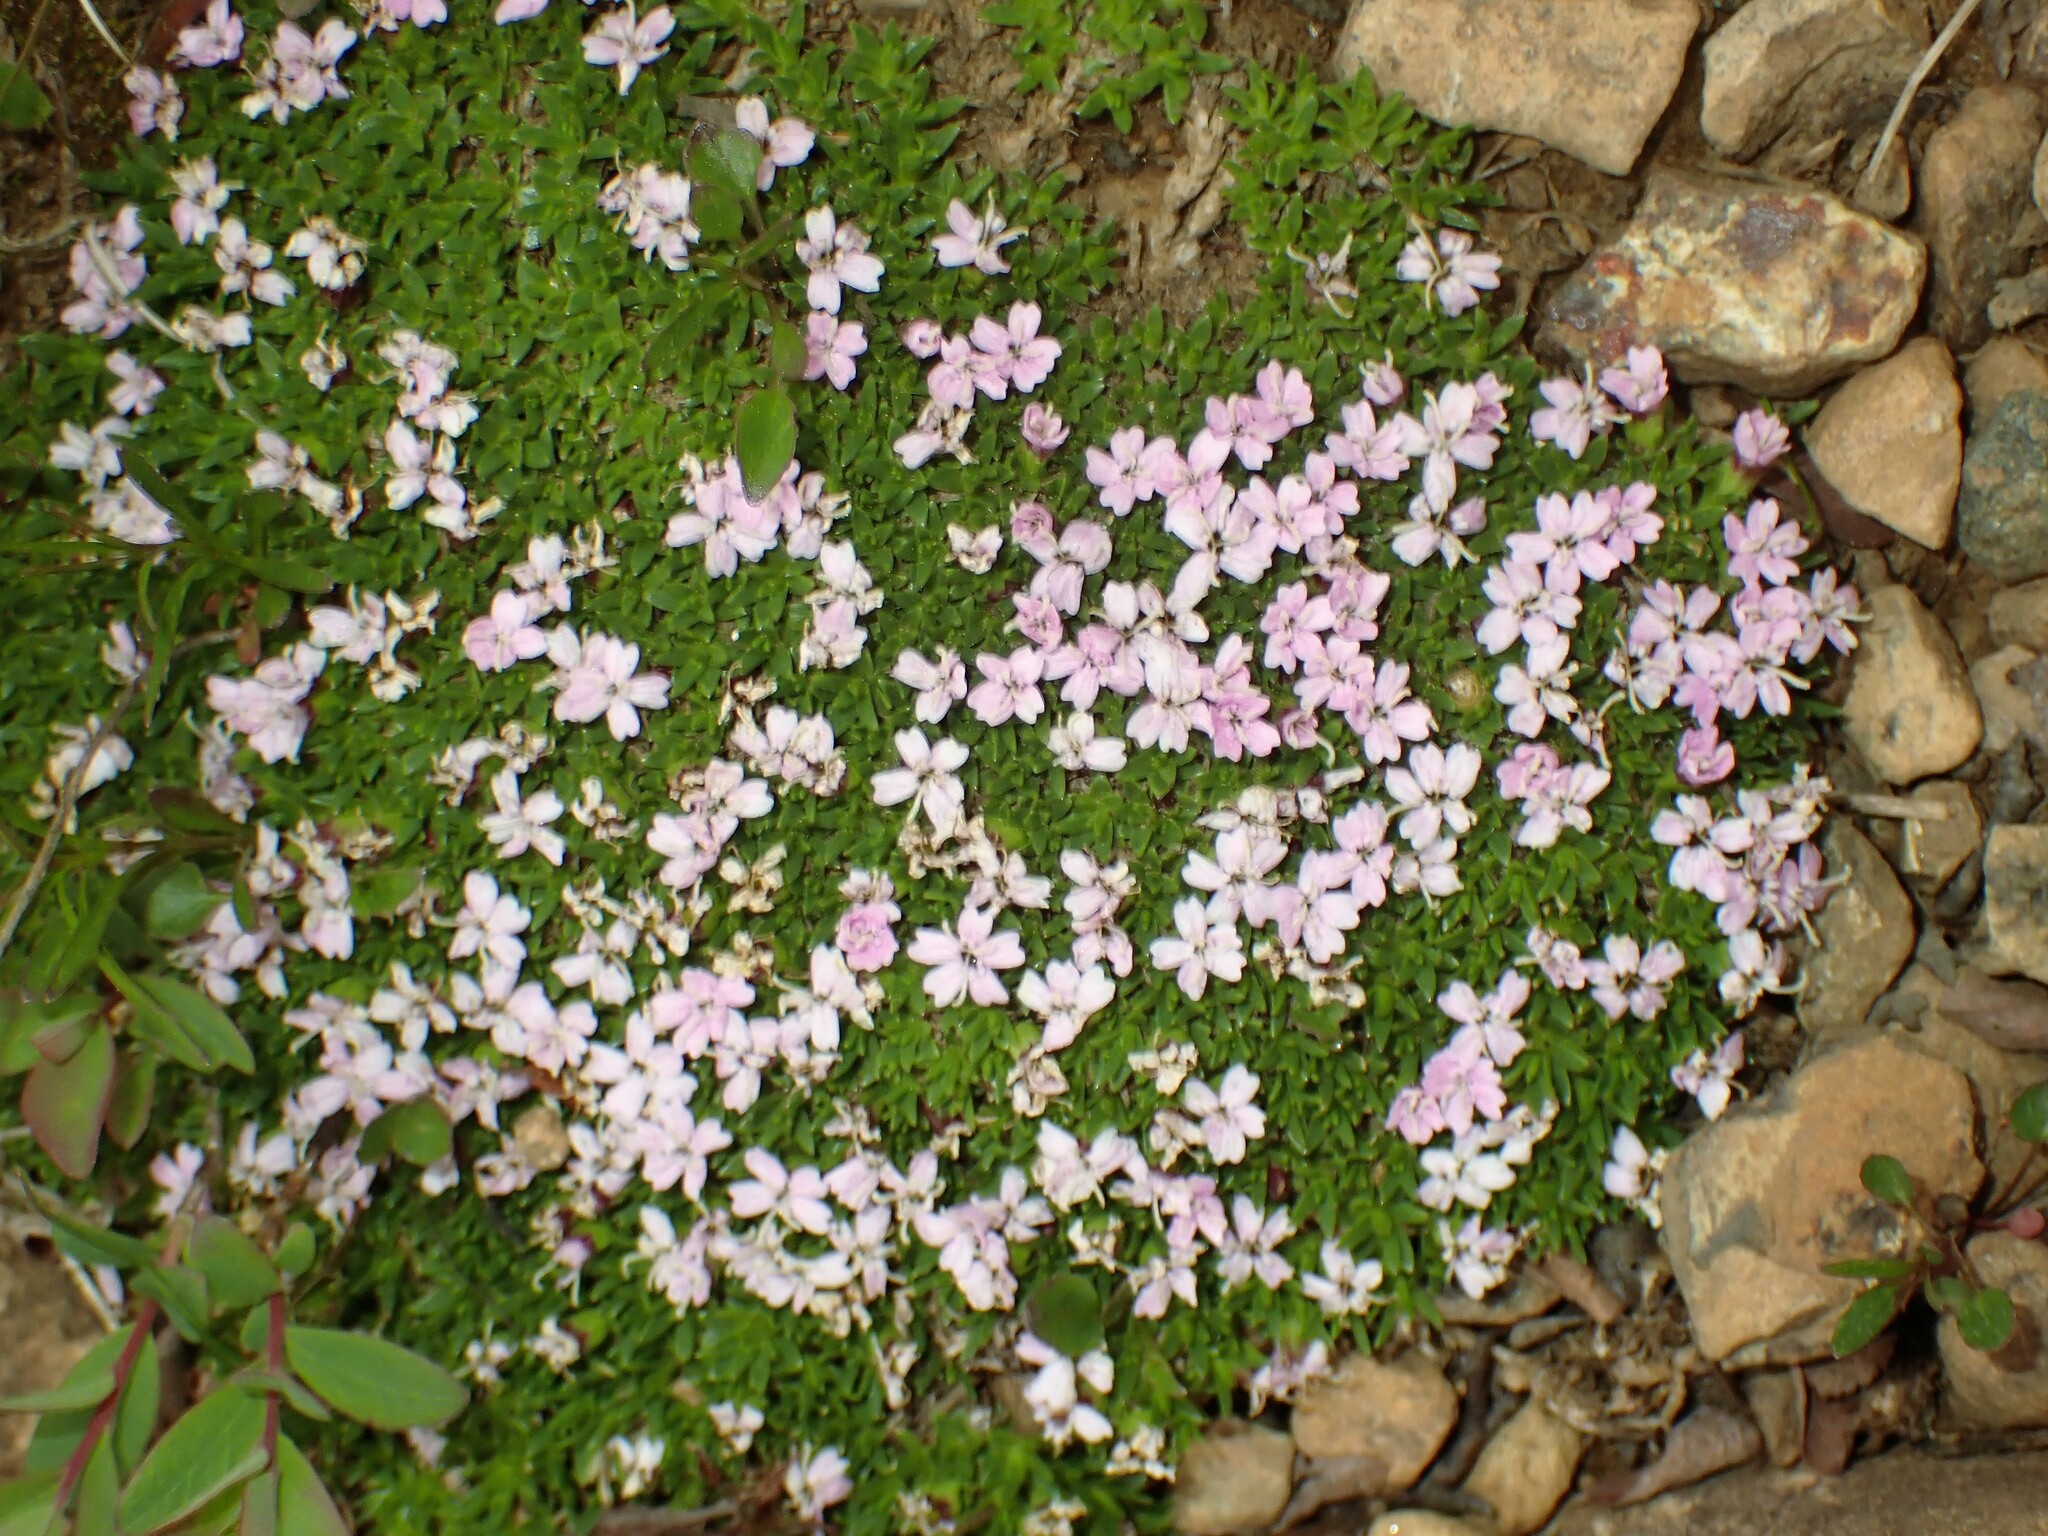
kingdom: Plantae
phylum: Tracheophyta
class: Magnoliopsida
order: Caryophyllales
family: Caryophyllaceae
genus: Silene
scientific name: Silene acaulis
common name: Moss campion
